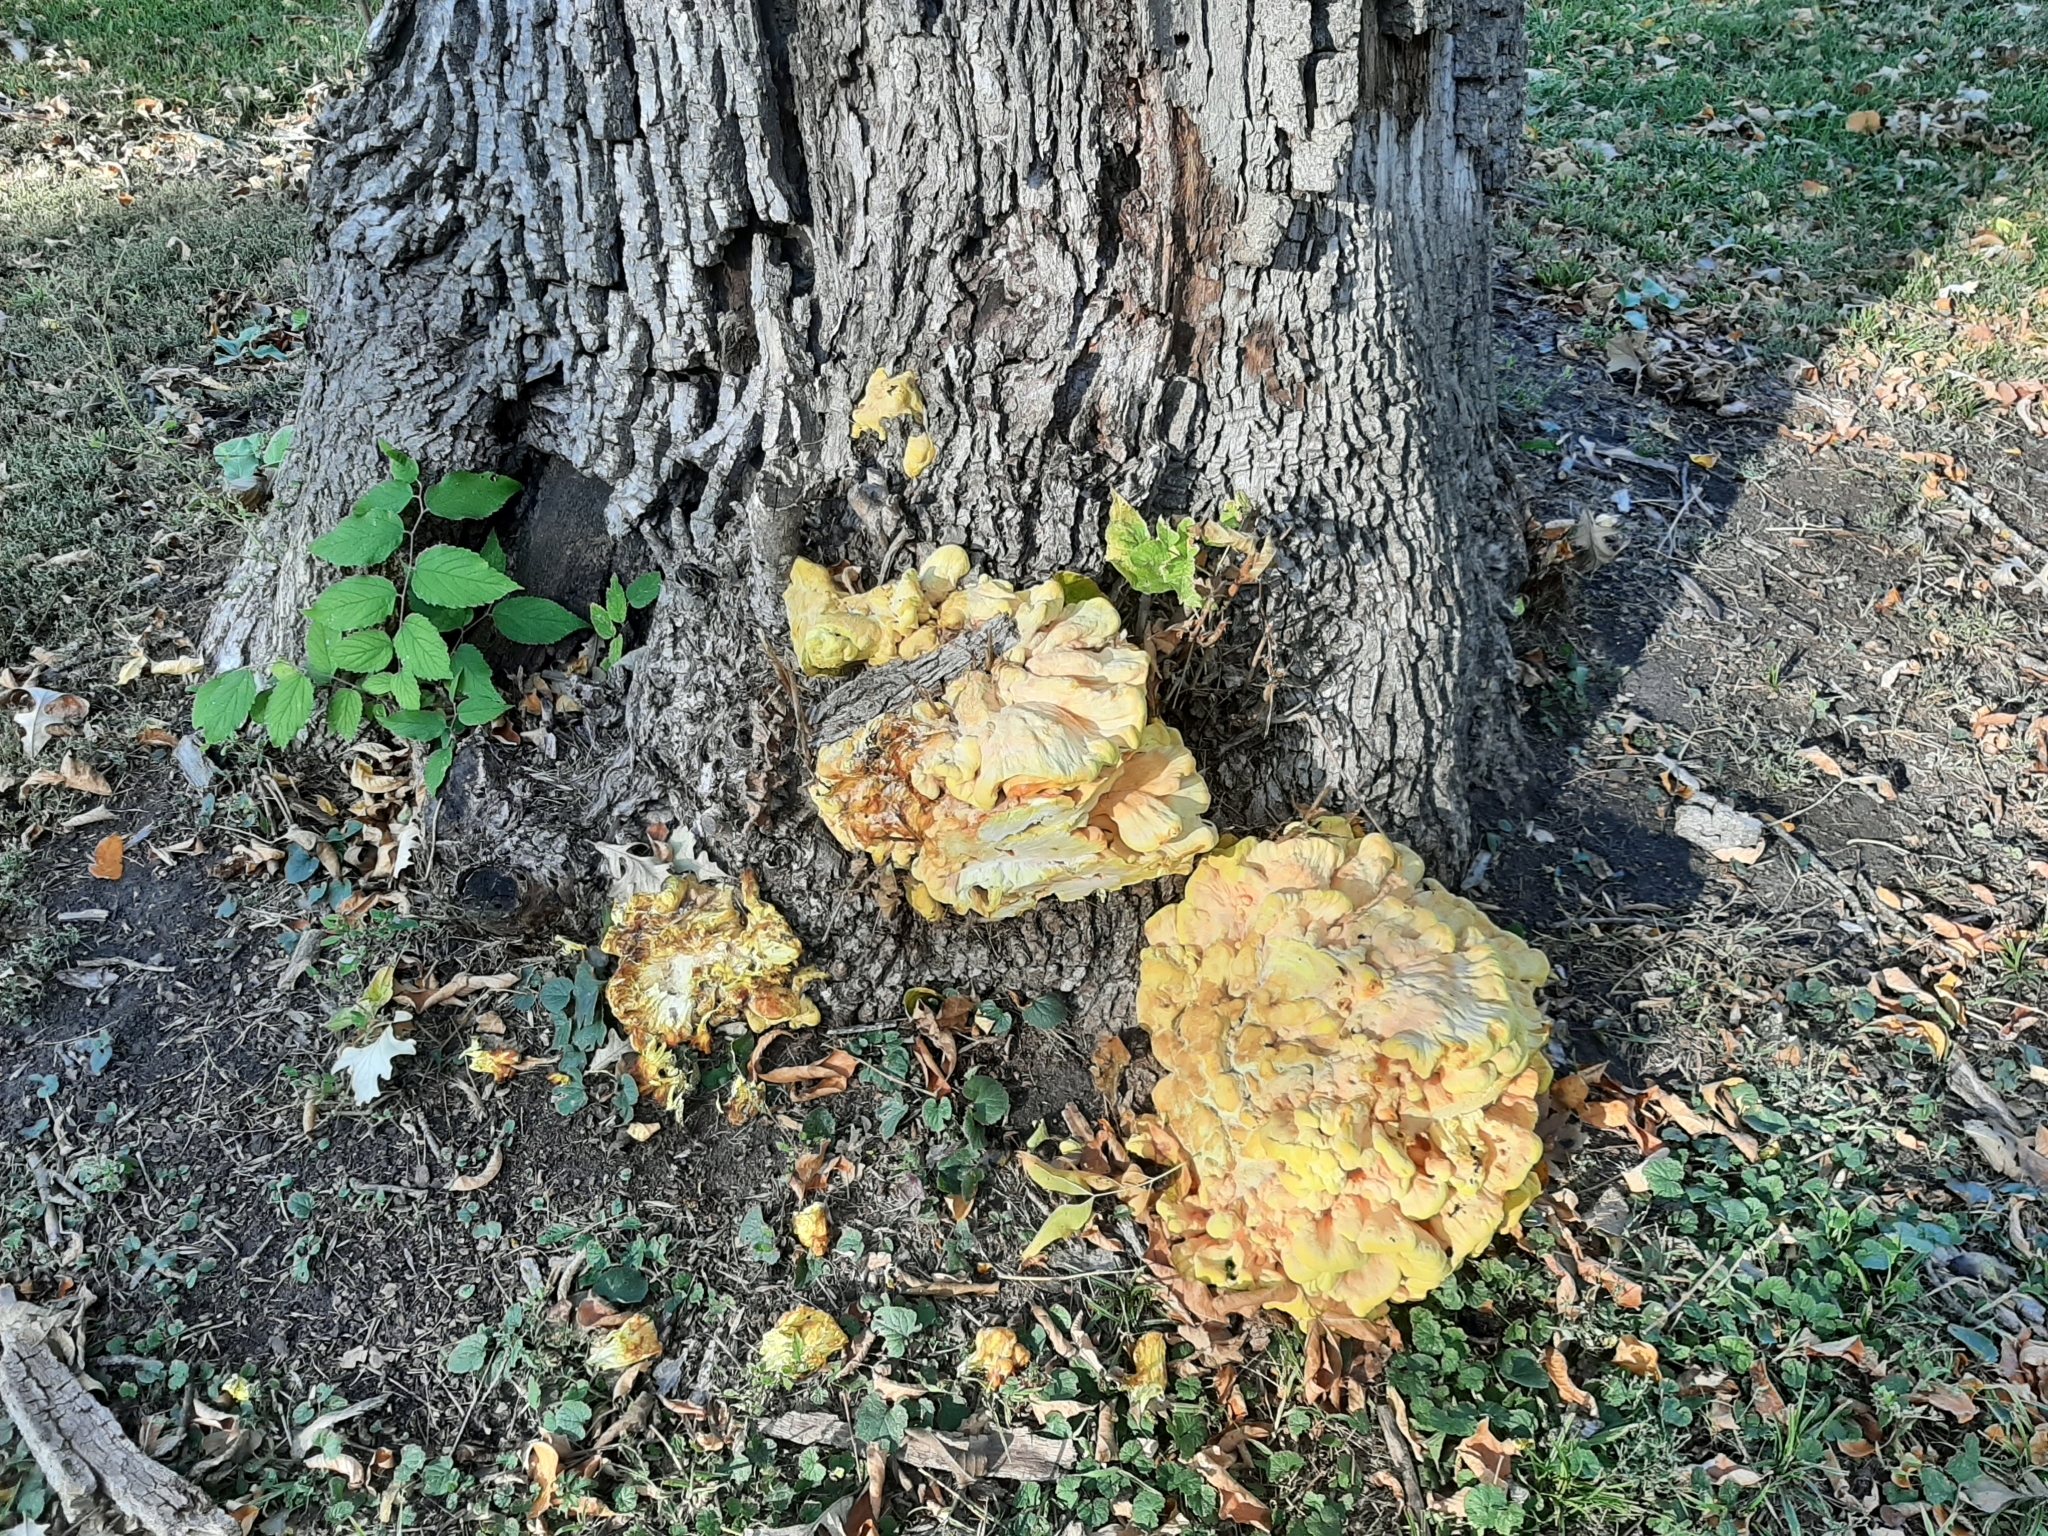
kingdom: Fungi
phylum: Basidiomycota
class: Agaricomycetes
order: Polyporales
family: Laetiporaceae
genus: Laetiporus
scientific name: Laetiporus sulphureus
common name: Chicken of the woods
